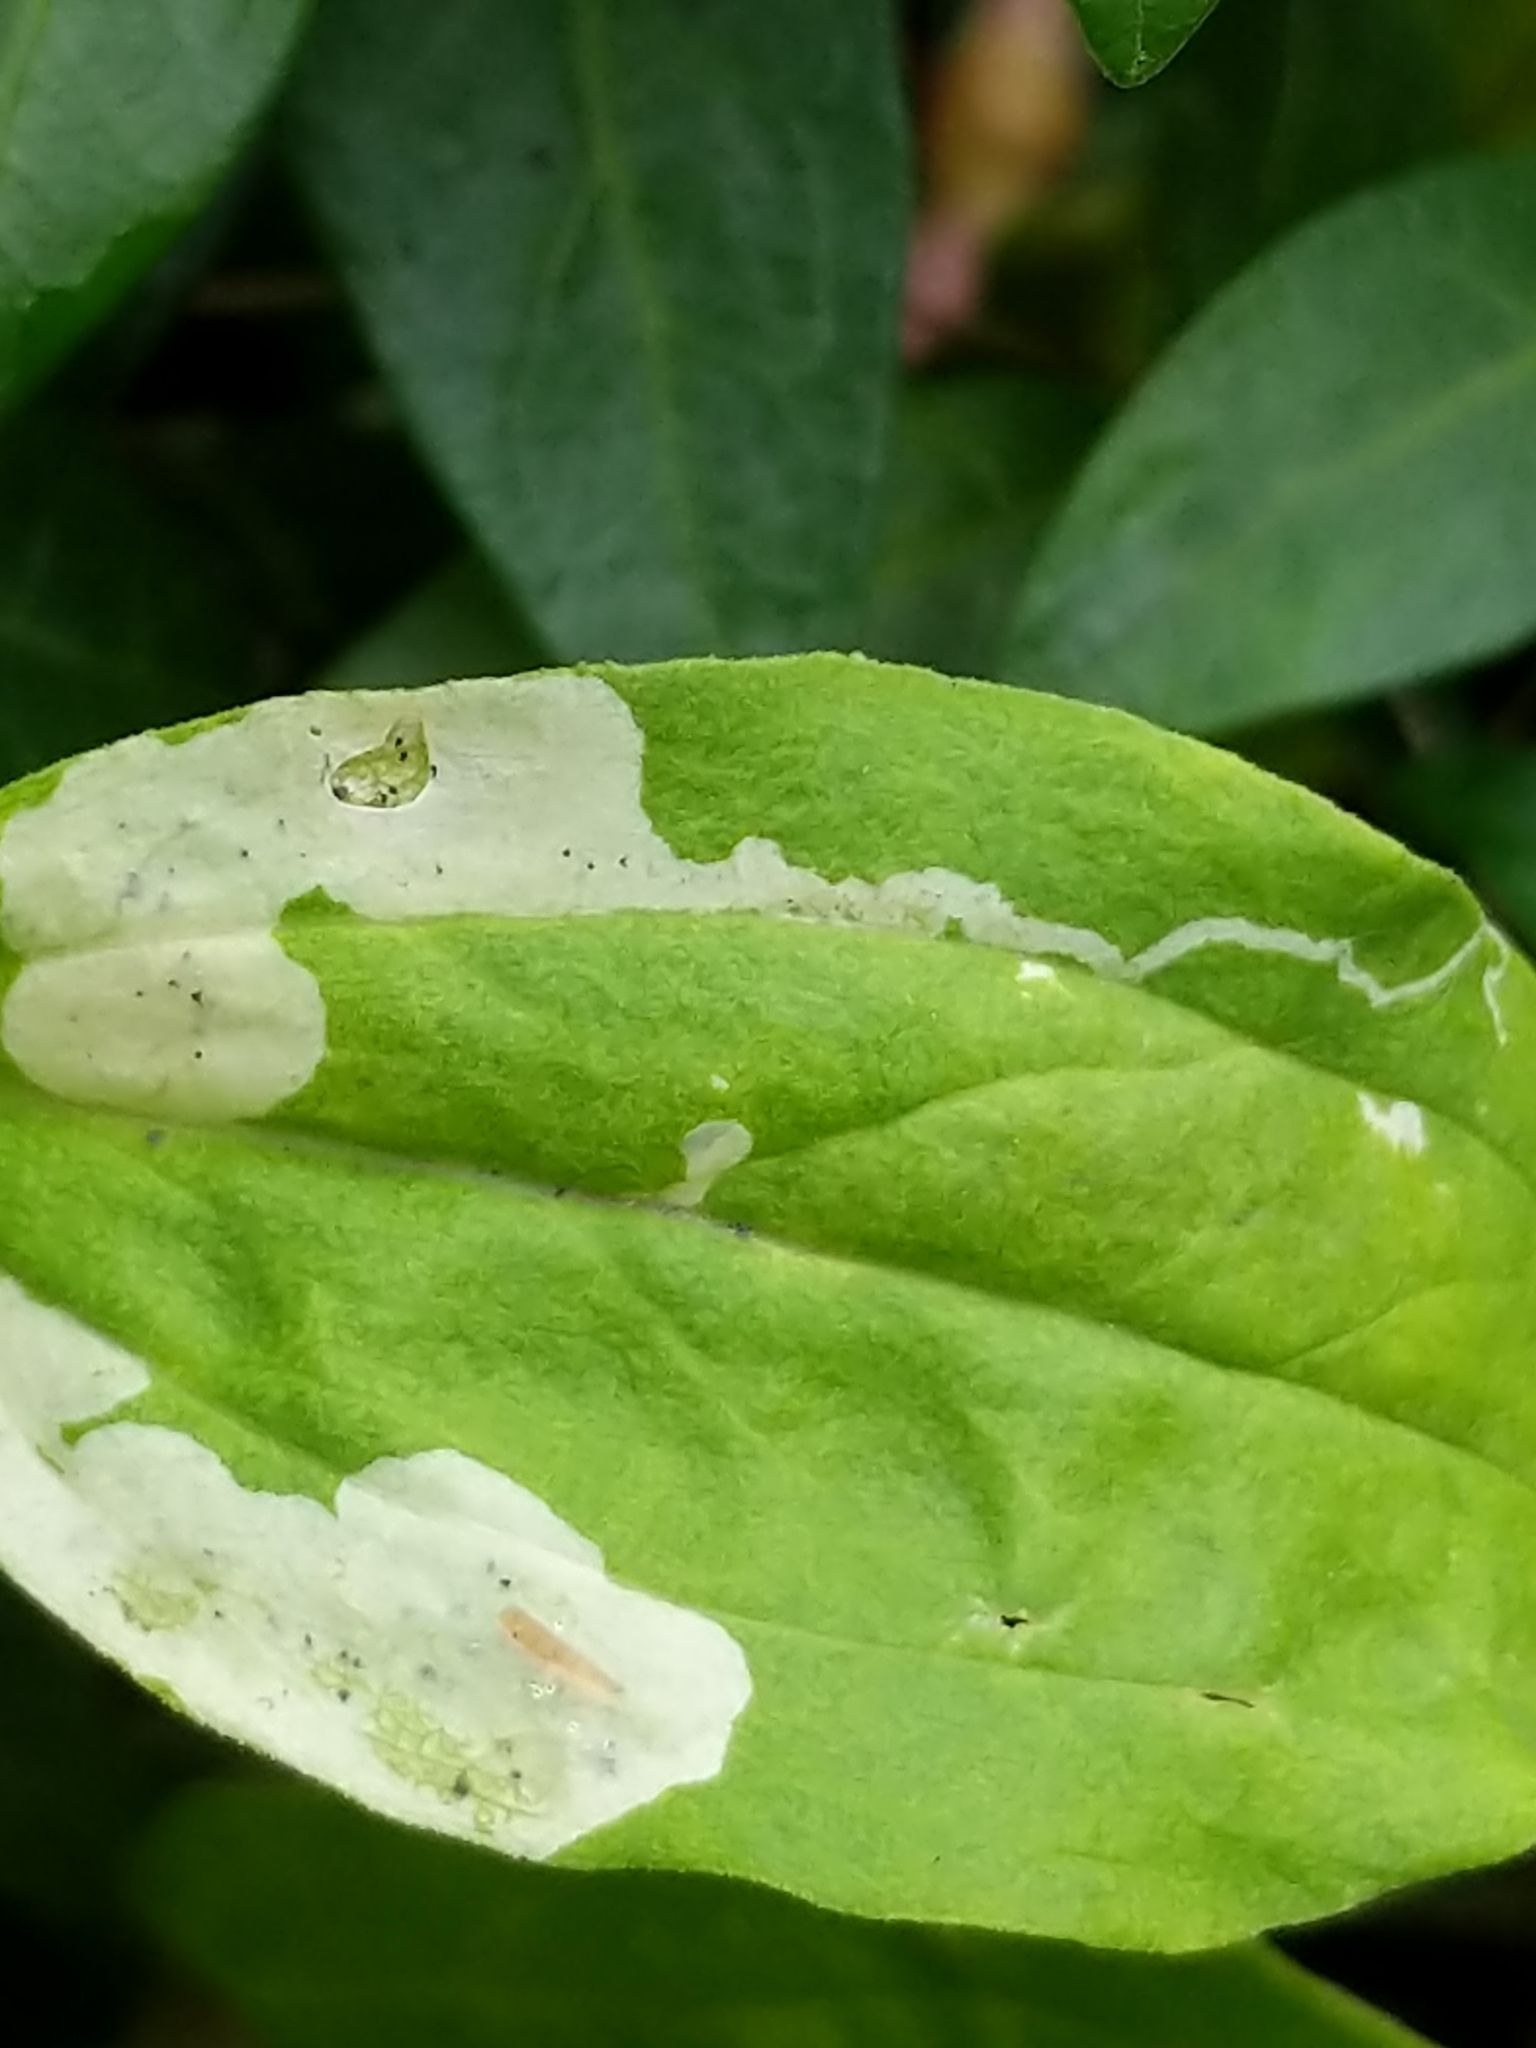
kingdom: Animalia
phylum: Arthropoda
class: Insecta
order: Diptera
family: Agromyzidae
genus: Amauromyza
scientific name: Amauromyza flavifrons
